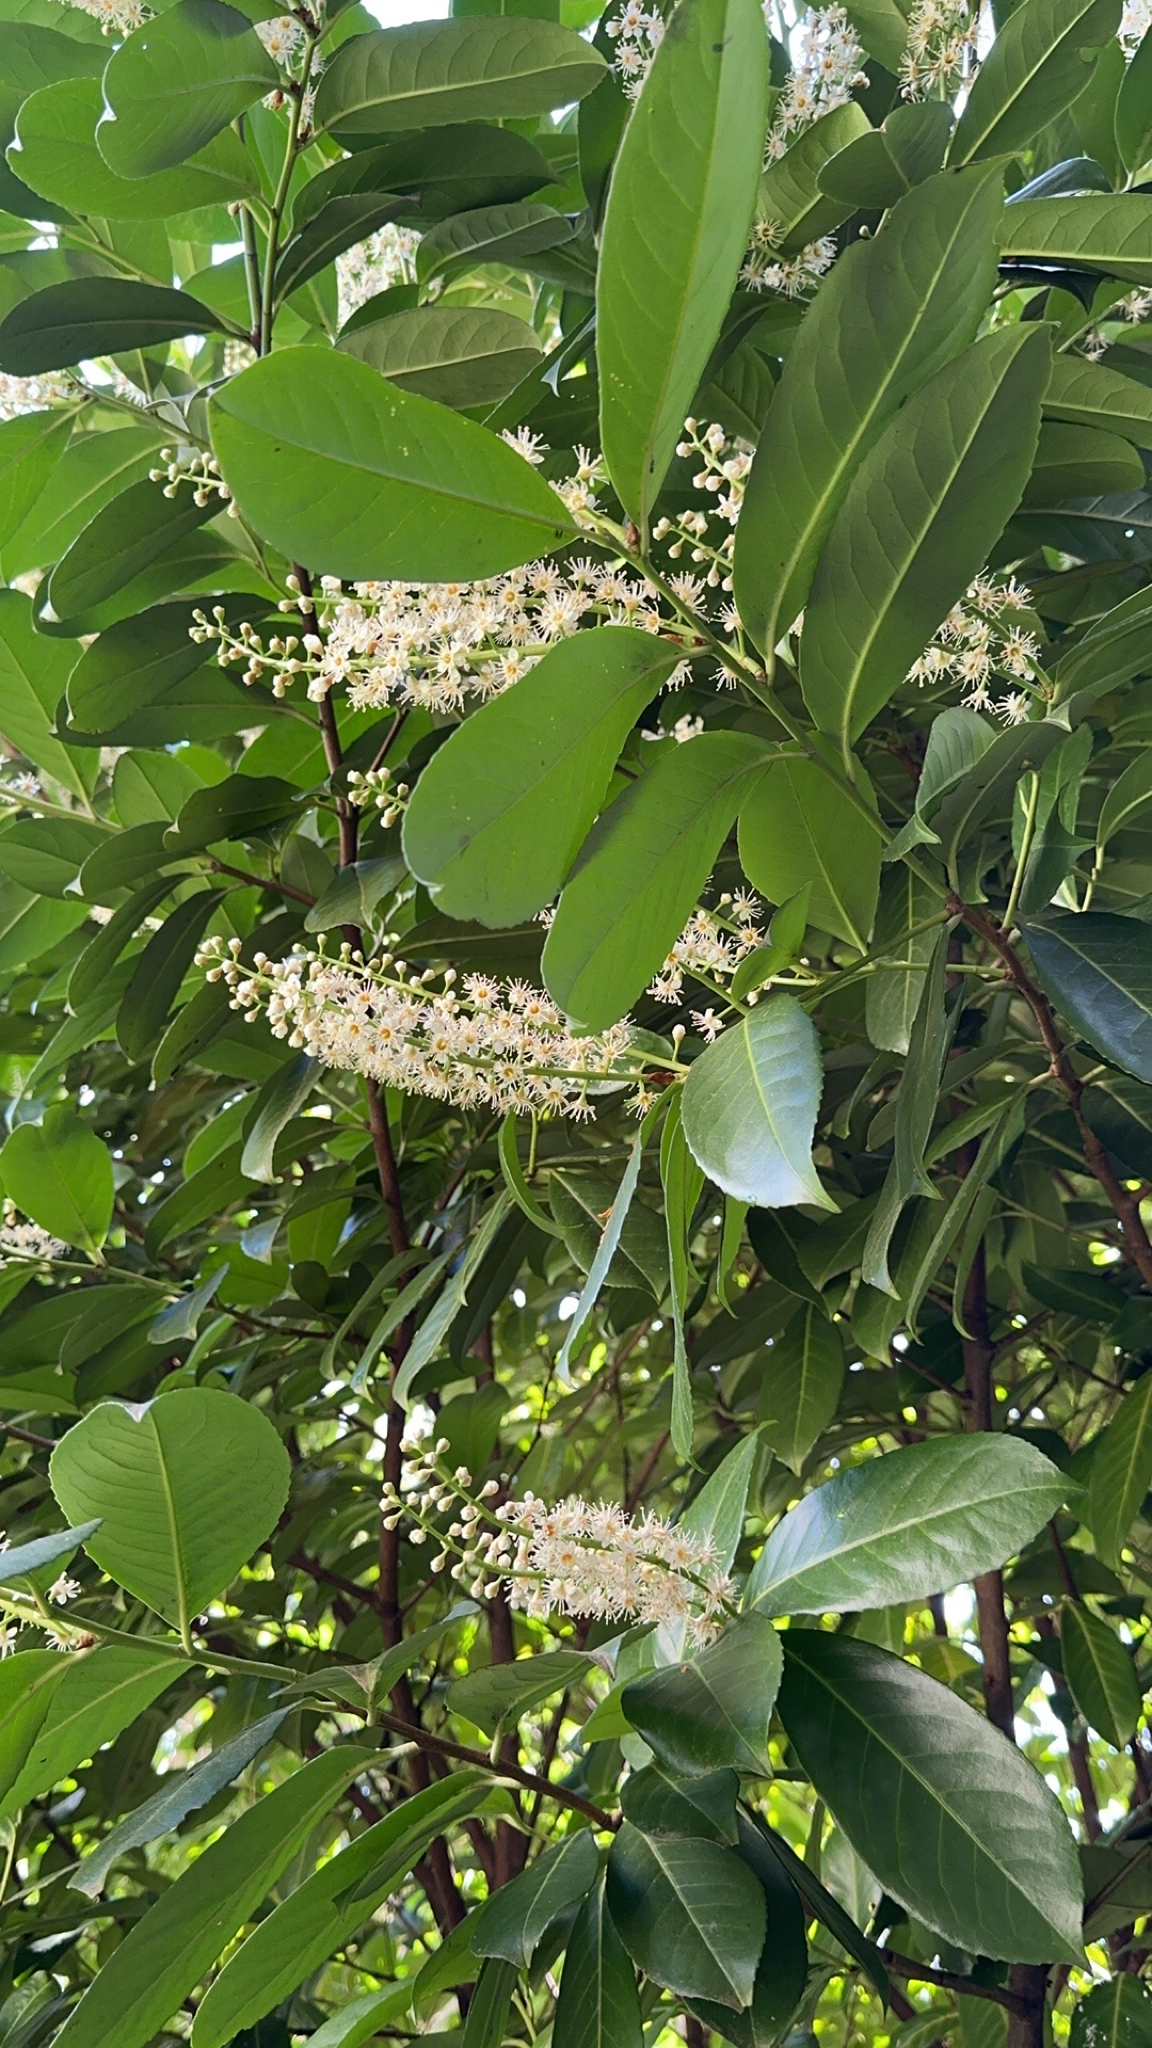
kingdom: Plantae
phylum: Tracheophyta
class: Magnoliopsida
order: Rosales
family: Rosaceae
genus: Prunus
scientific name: Prunus laurocerasus
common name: Cherry laurel
